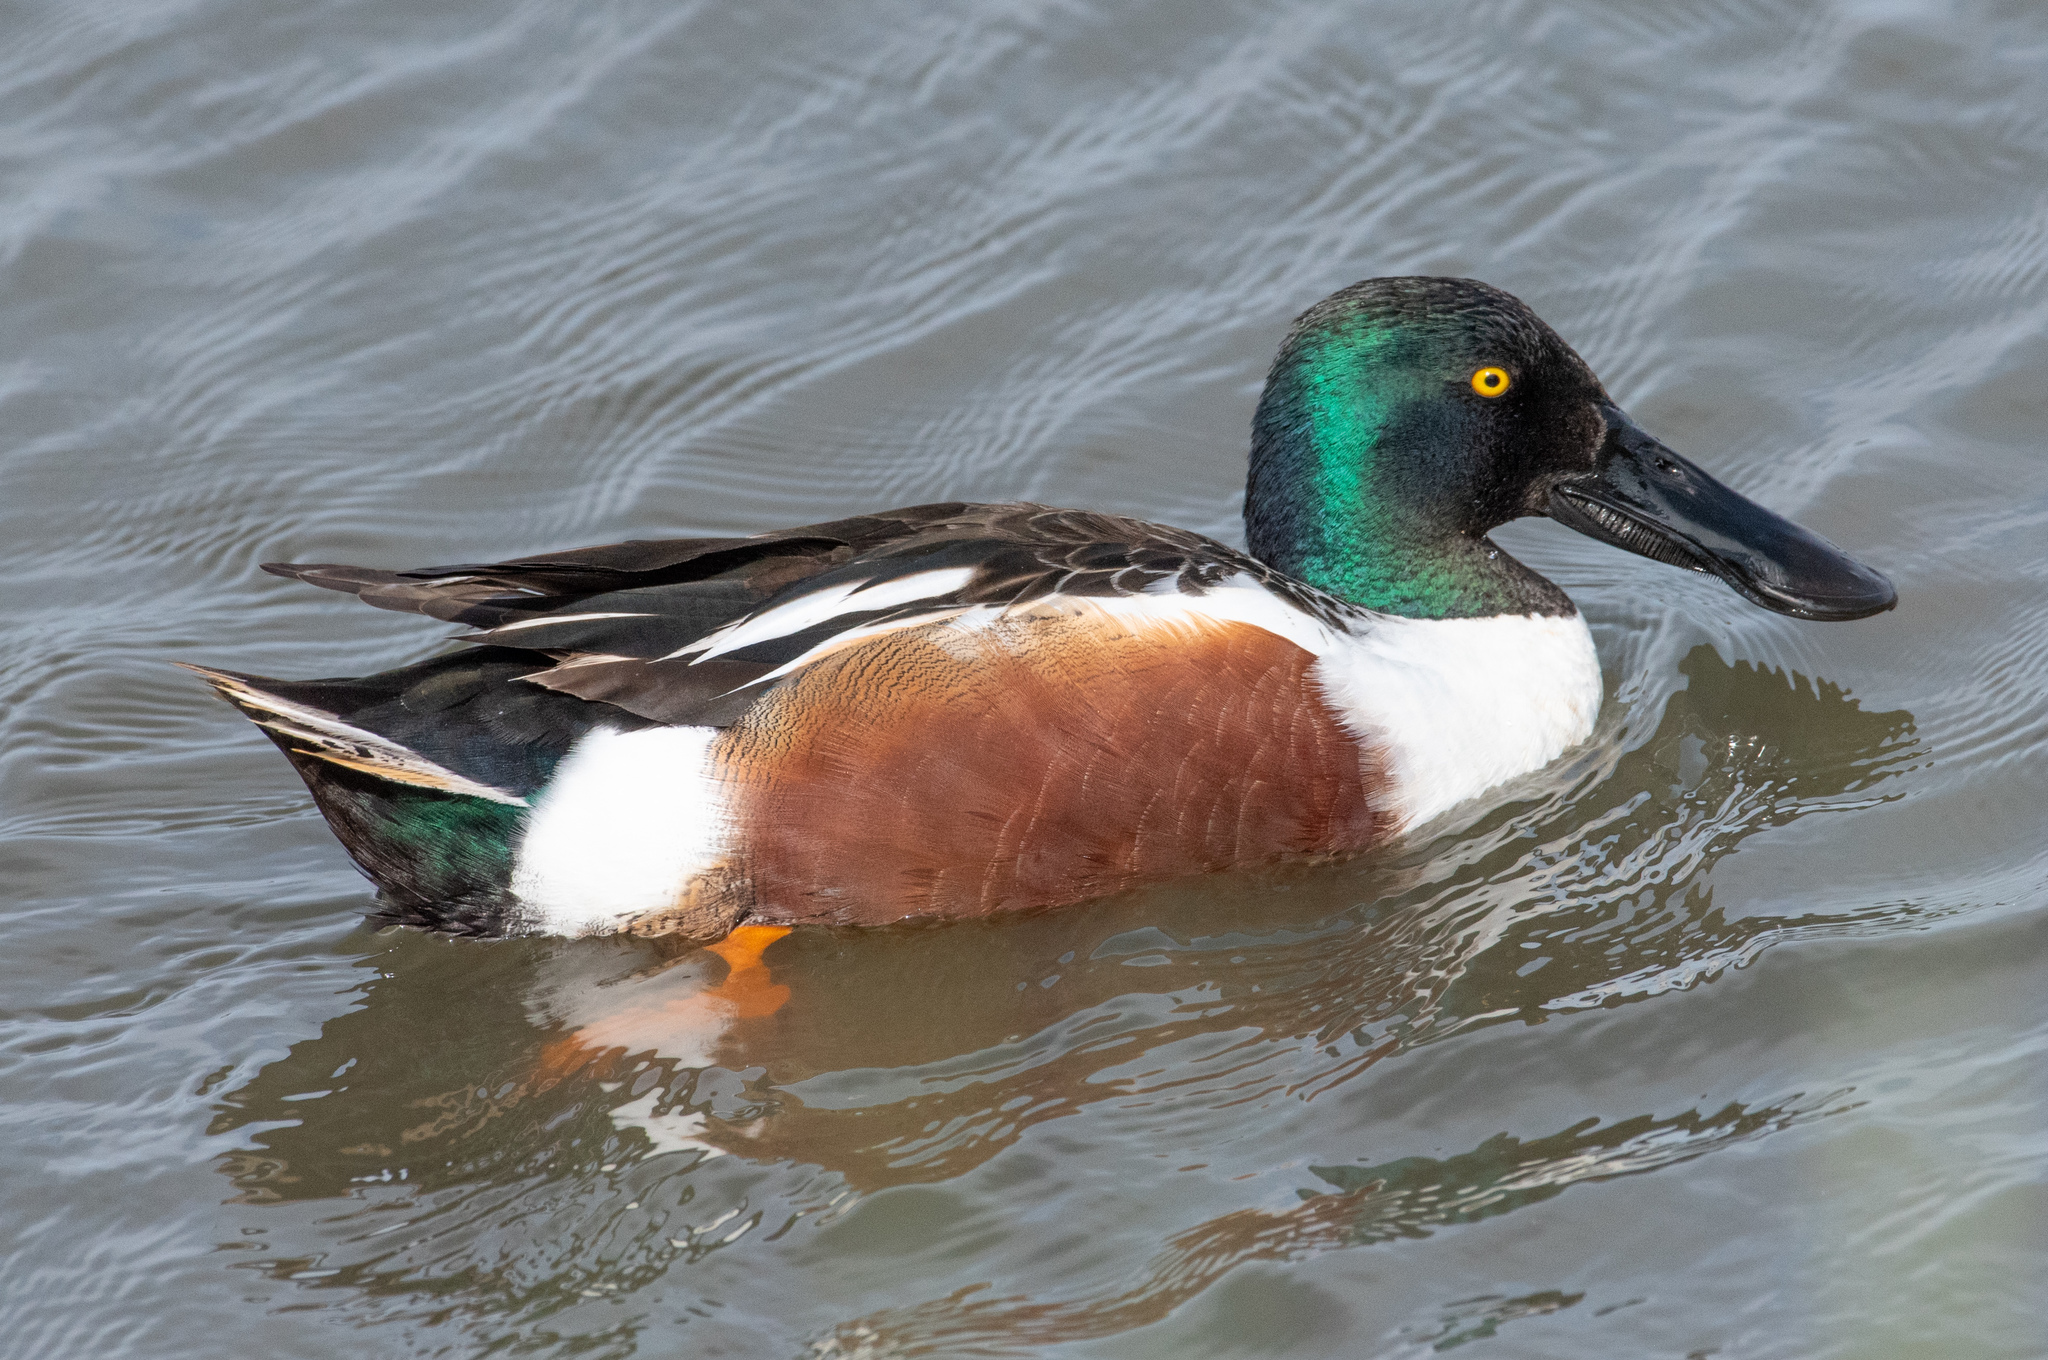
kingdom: Animalia
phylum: Chordata
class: Aves
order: Anseriformes
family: Anatidae
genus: Spatula
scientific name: Spatula clypeata
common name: Northern shoveler
